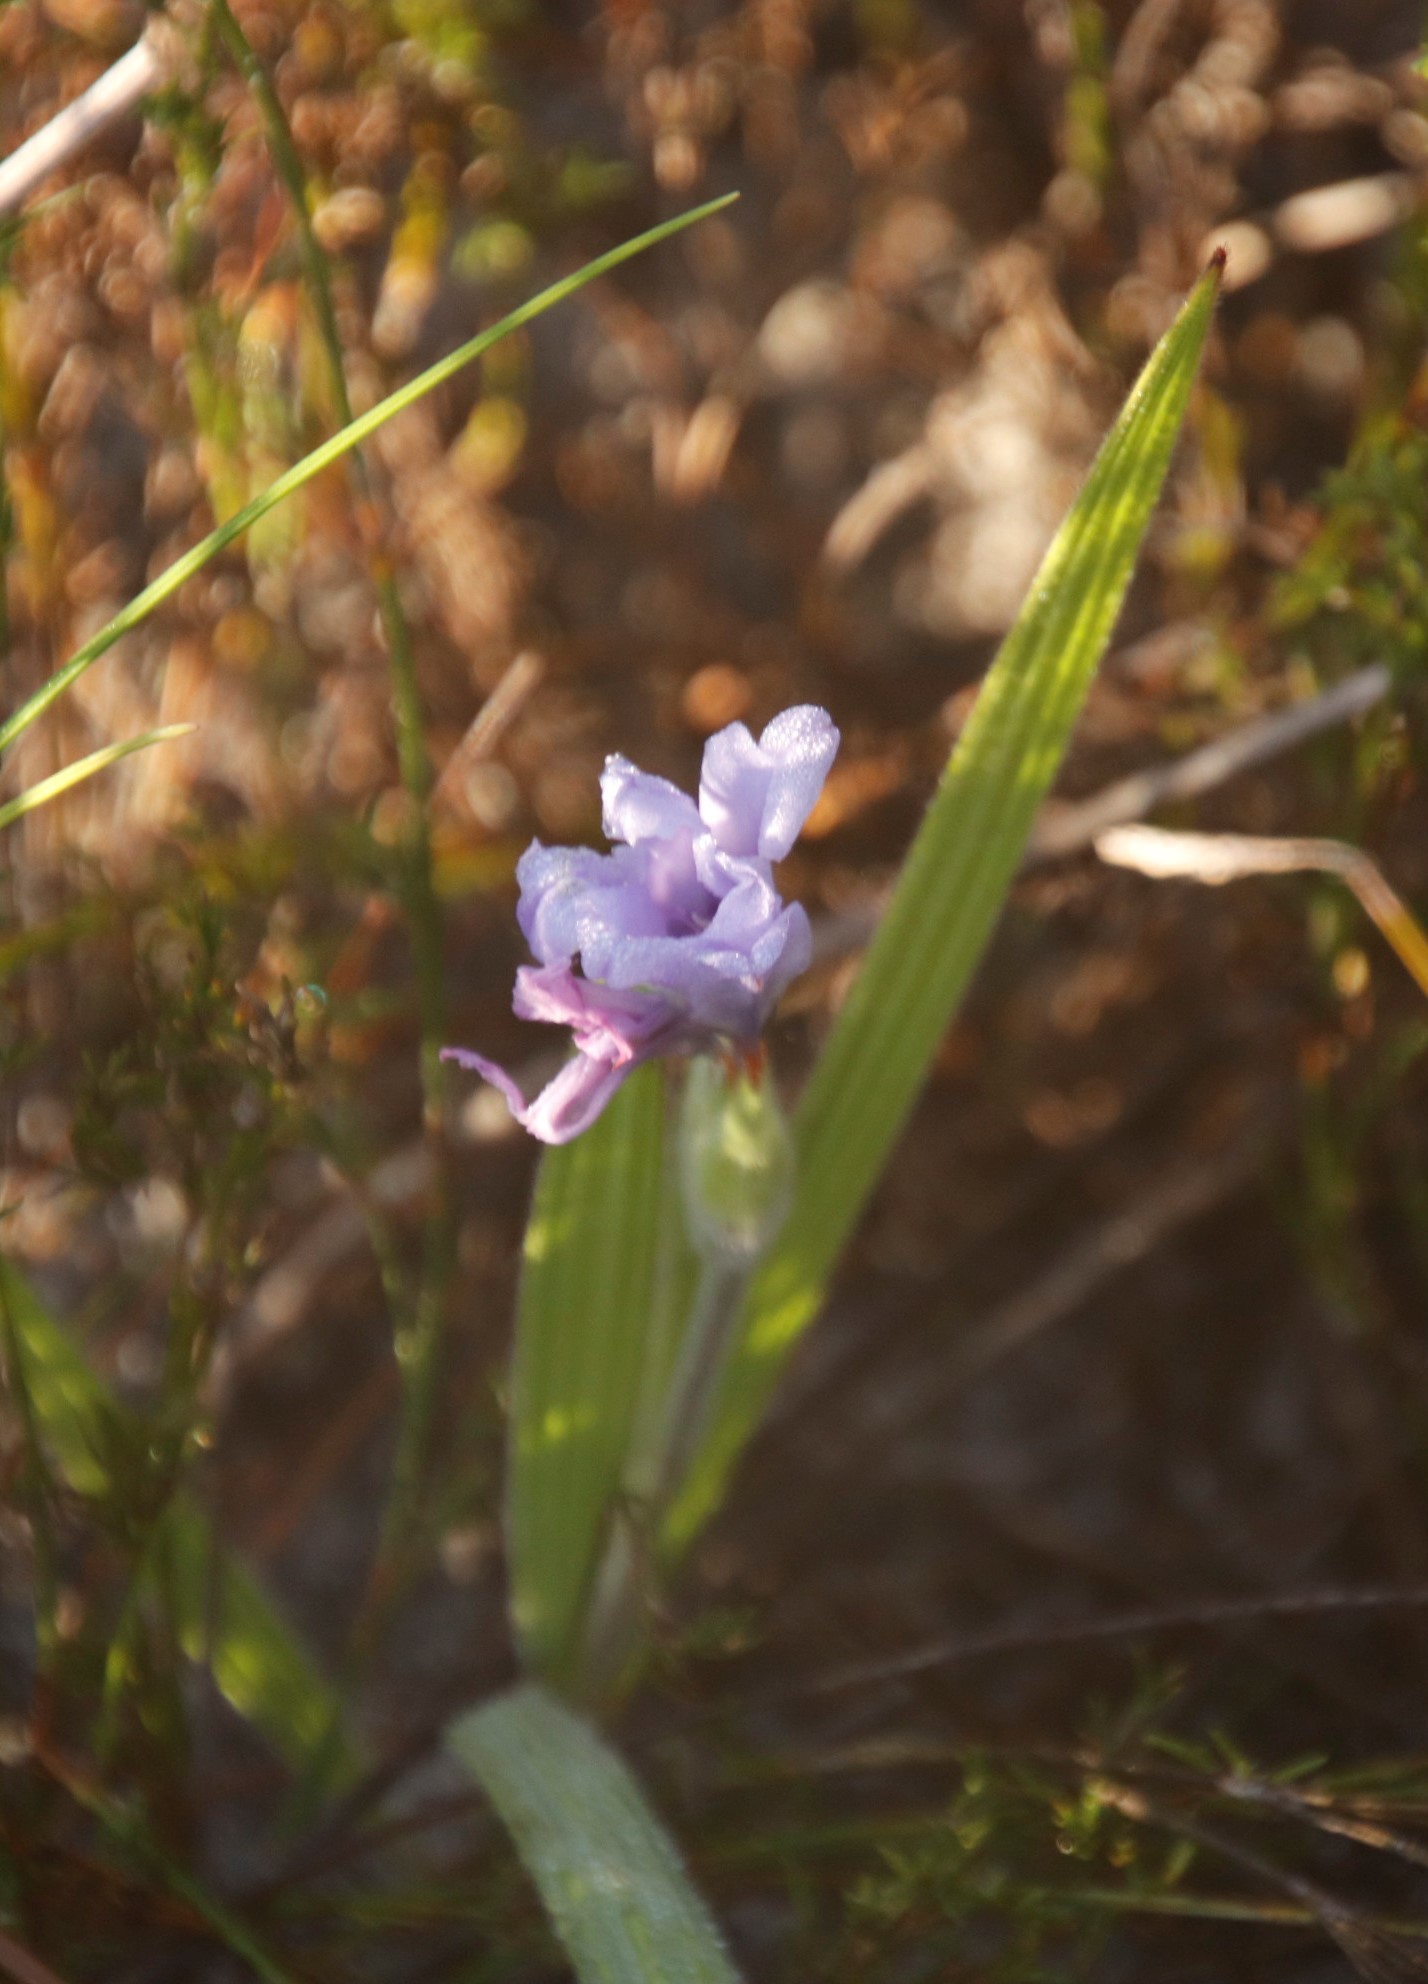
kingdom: Plantae
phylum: Tracheophyta
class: Liliopsida
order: Asparagales
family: Iridaceae
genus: Babiana
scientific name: Babiana villosula
